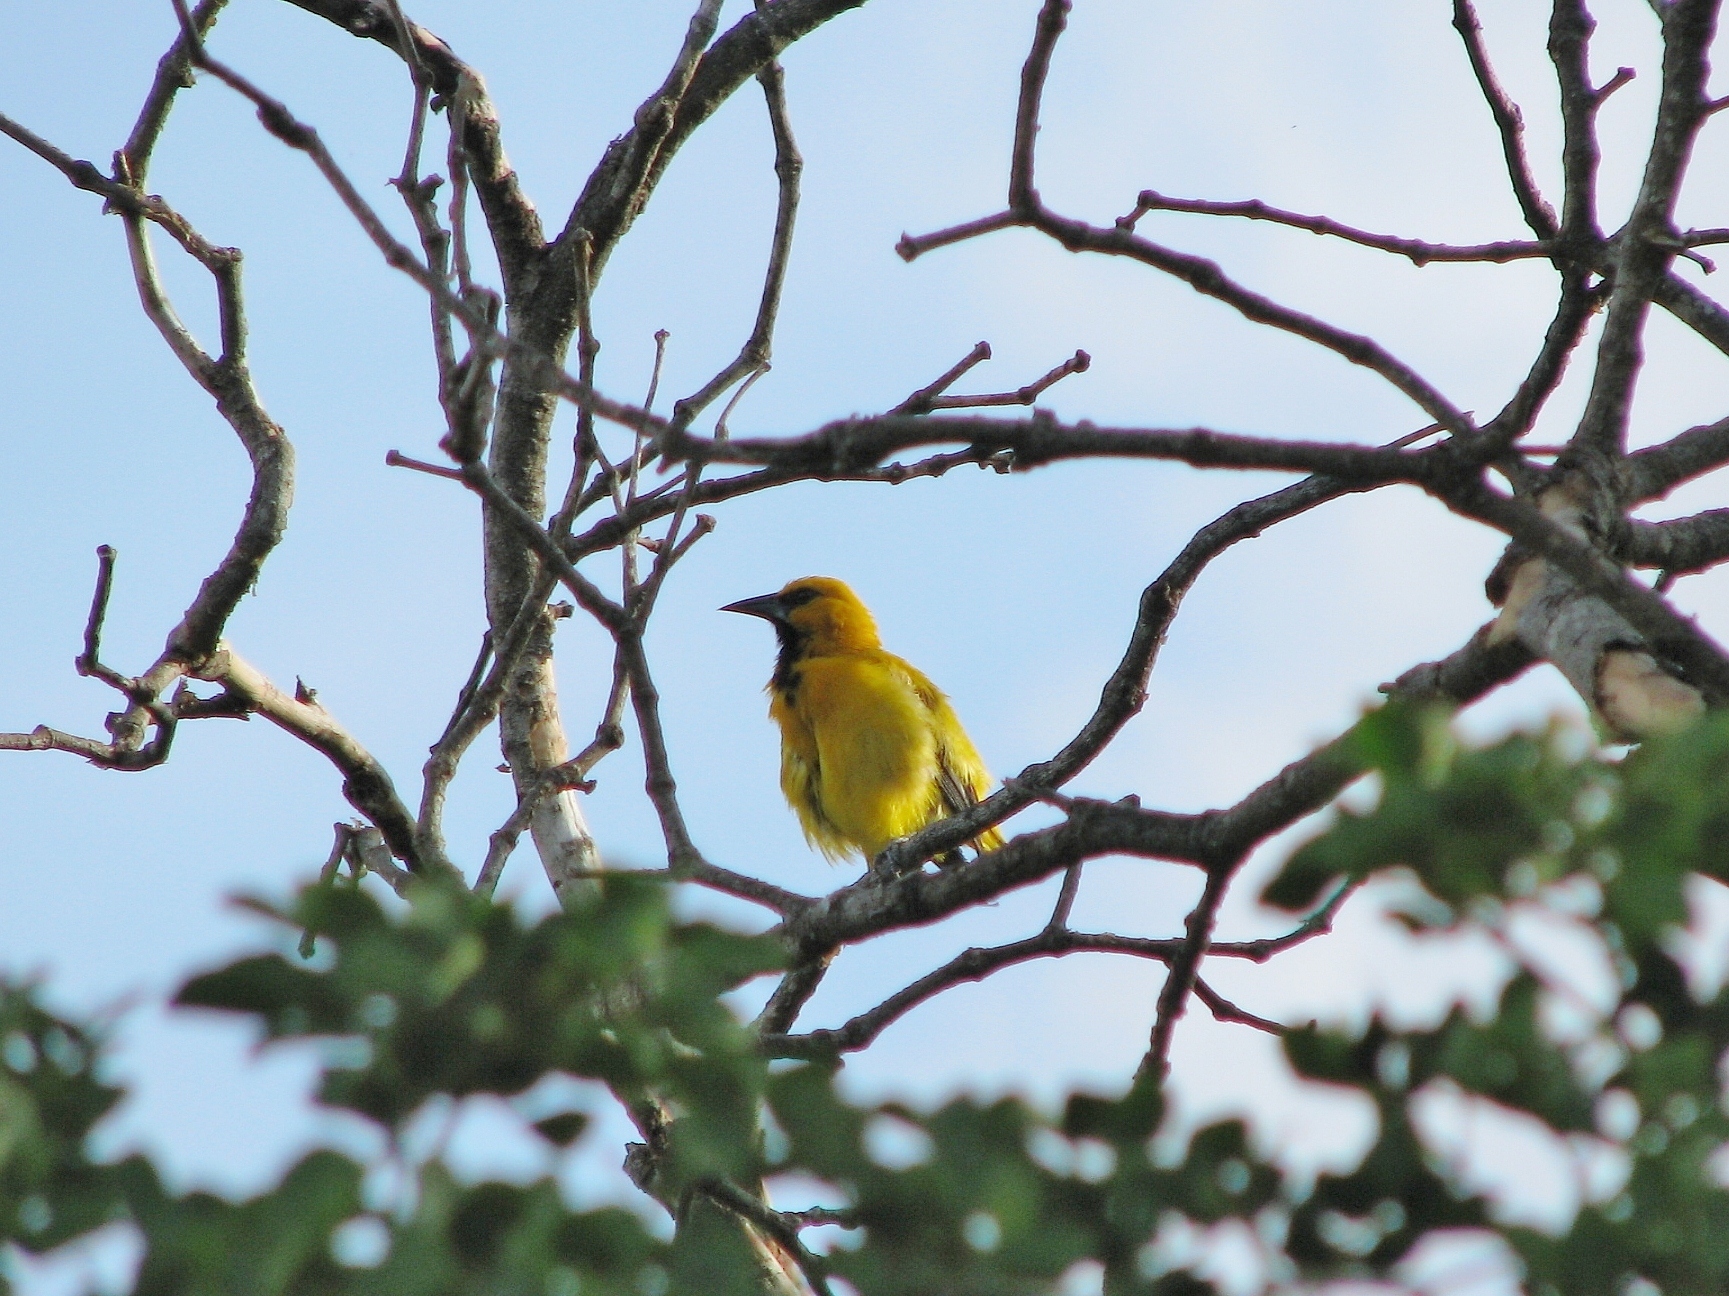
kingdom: Animalia
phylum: Chordata
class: Aves
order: Passeriformes
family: Icteridae
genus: Icterus
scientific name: Icterus nigrogularis
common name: Yellow oriole
